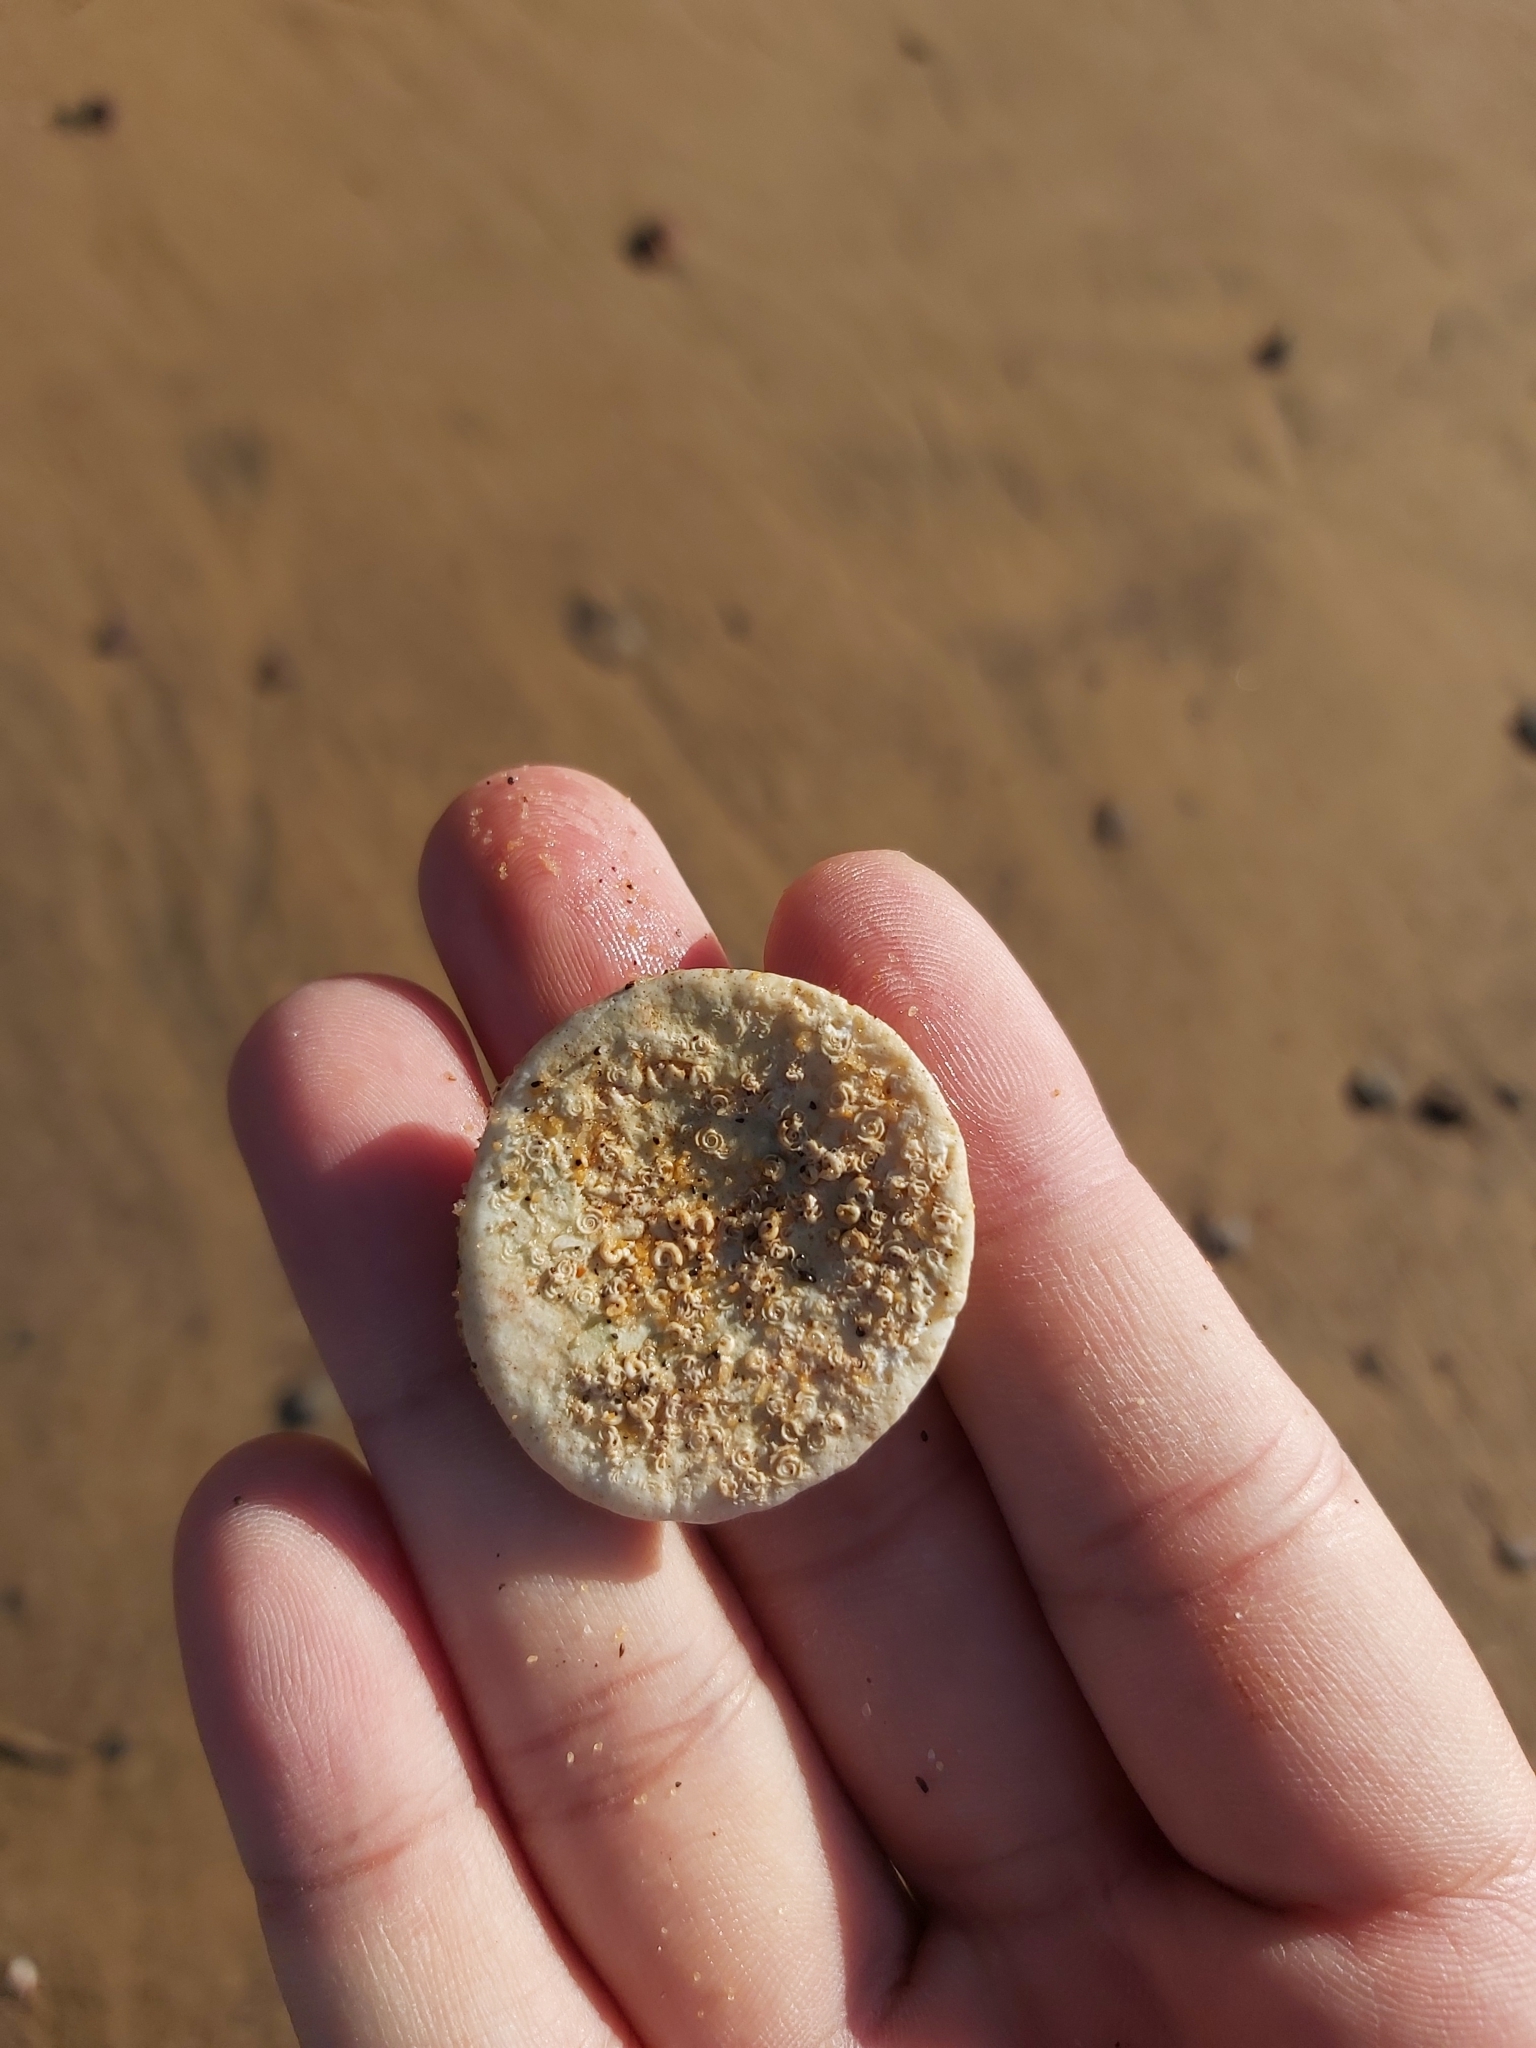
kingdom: Animalia
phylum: Mollusca
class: Gastropoda
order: Trochida
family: Turbinidae
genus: Turbo
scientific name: Turbo militaris
